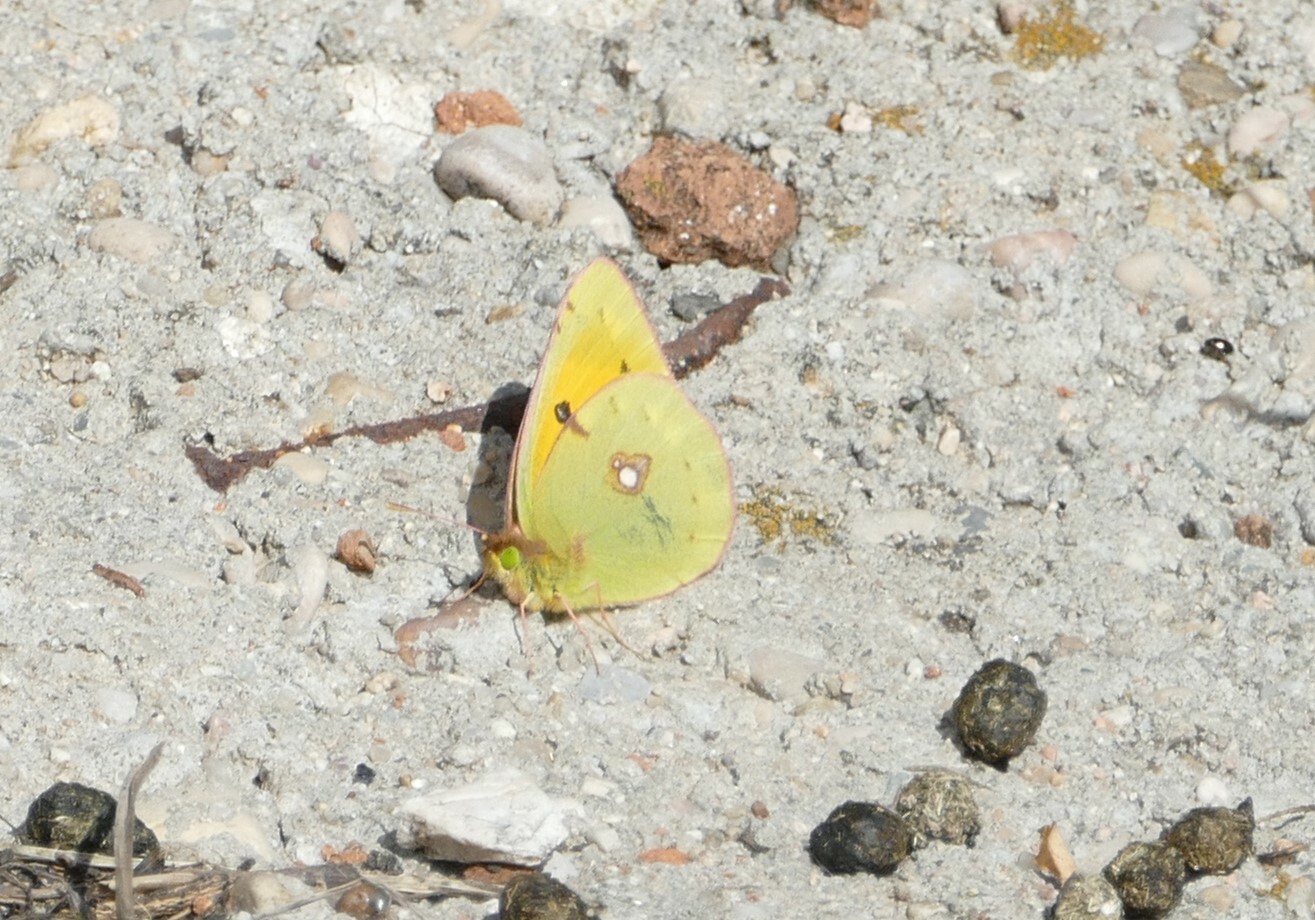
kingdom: Animalia
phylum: Arthropoda
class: Insecta
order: Lepidoptera
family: Pieridae
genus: Colias
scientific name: Colias croceus
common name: Clouded yellow
